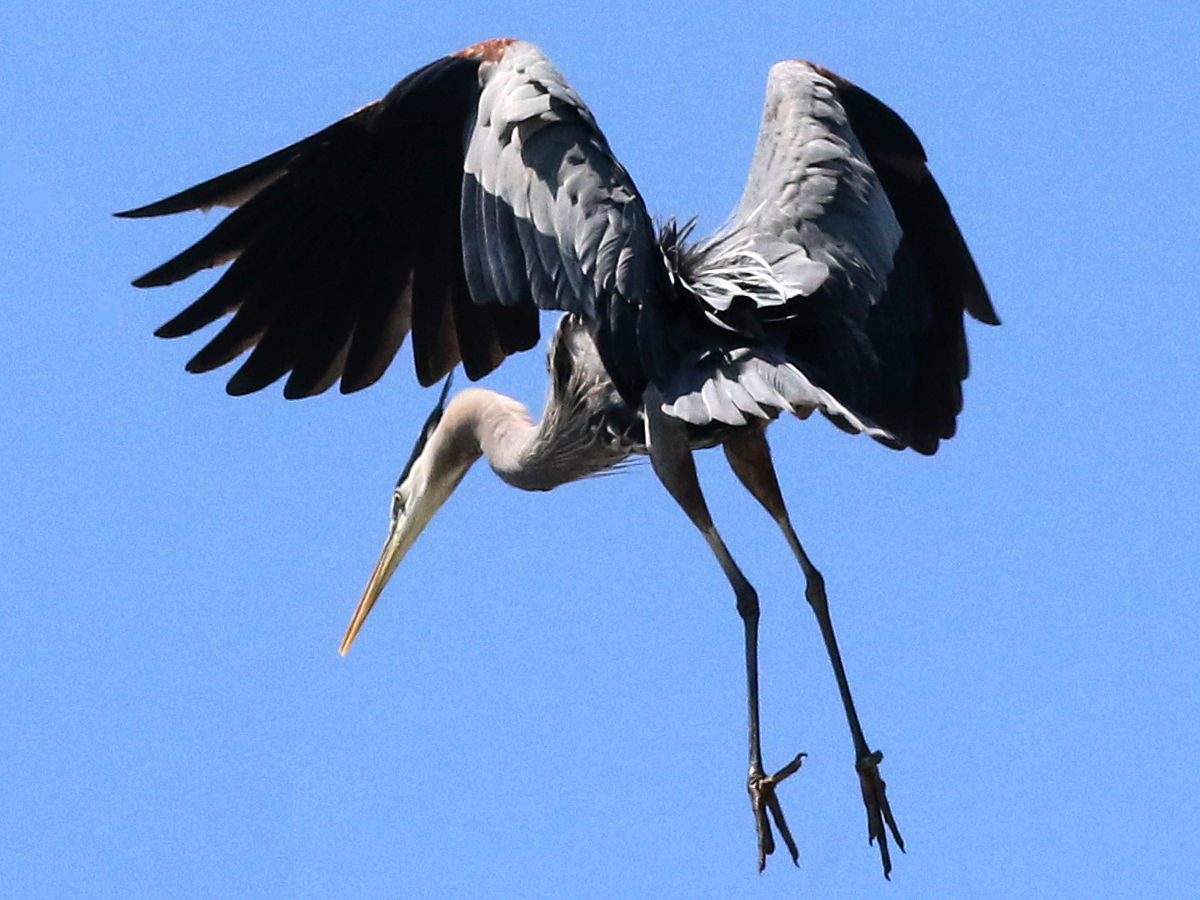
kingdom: Animalia
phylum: Chordata
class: Aves
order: Pelecaniformes
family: Ardeidae
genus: Ardea
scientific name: Ardea herodias
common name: Great blue heron
